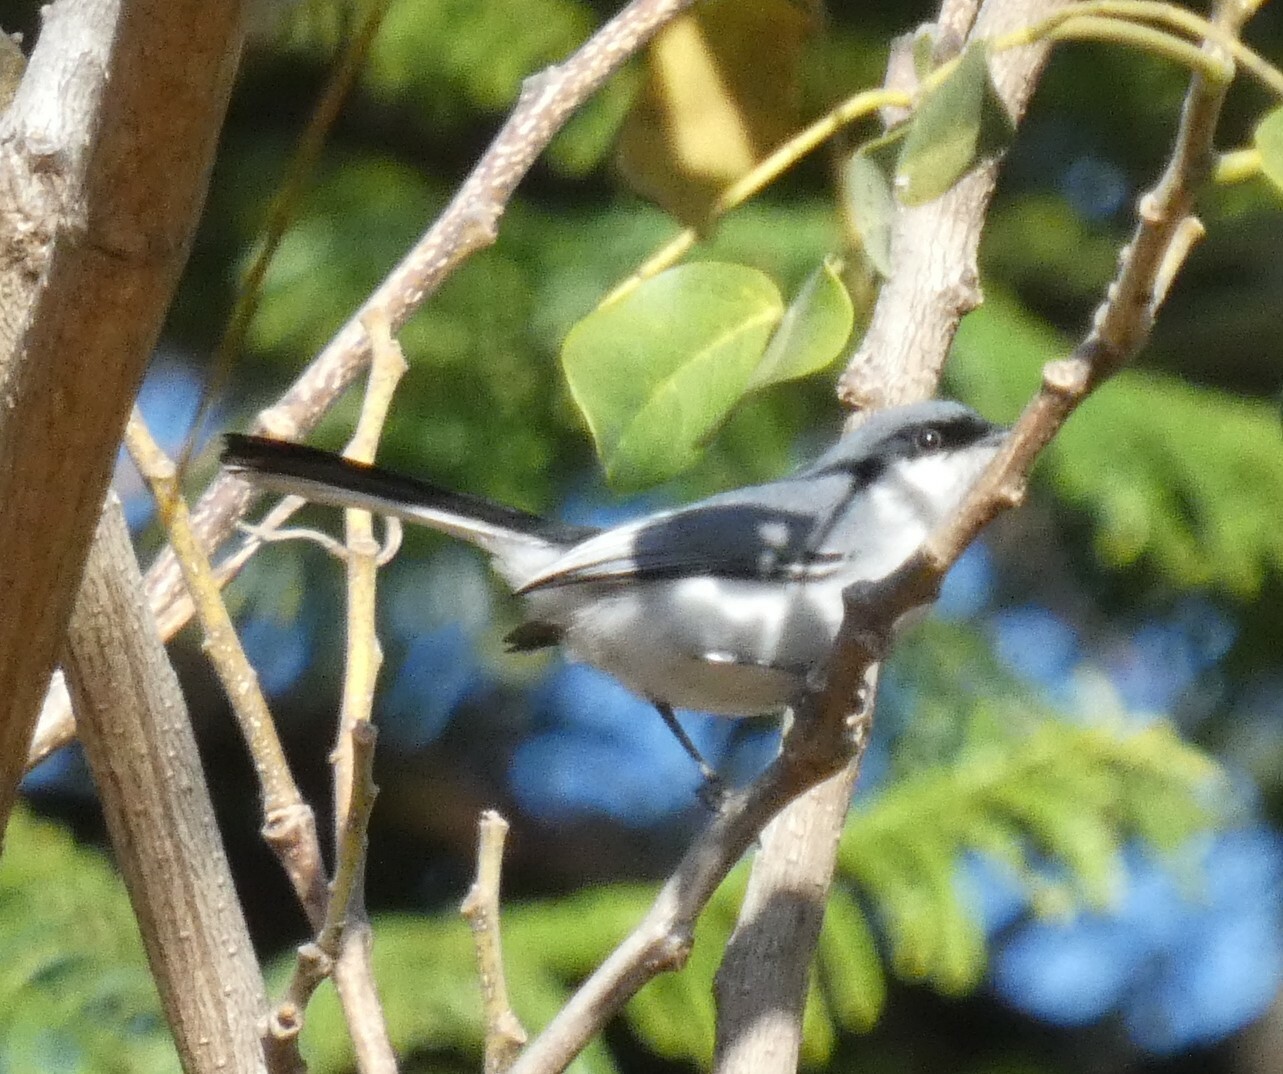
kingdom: Animalia
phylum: Chordata
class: Aves
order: Passeriformes
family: Polioptilidae
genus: Polioptila
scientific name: Polioptila dumicola
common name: Masked gnatcatcher
